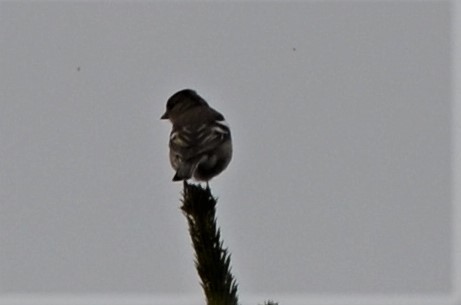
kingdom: Animalia
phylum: Chordata
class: Aves
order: Passeriformes
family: Fringillidae
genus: Fringilla
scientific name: Fringilla coelebs
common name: Common chaffinch
